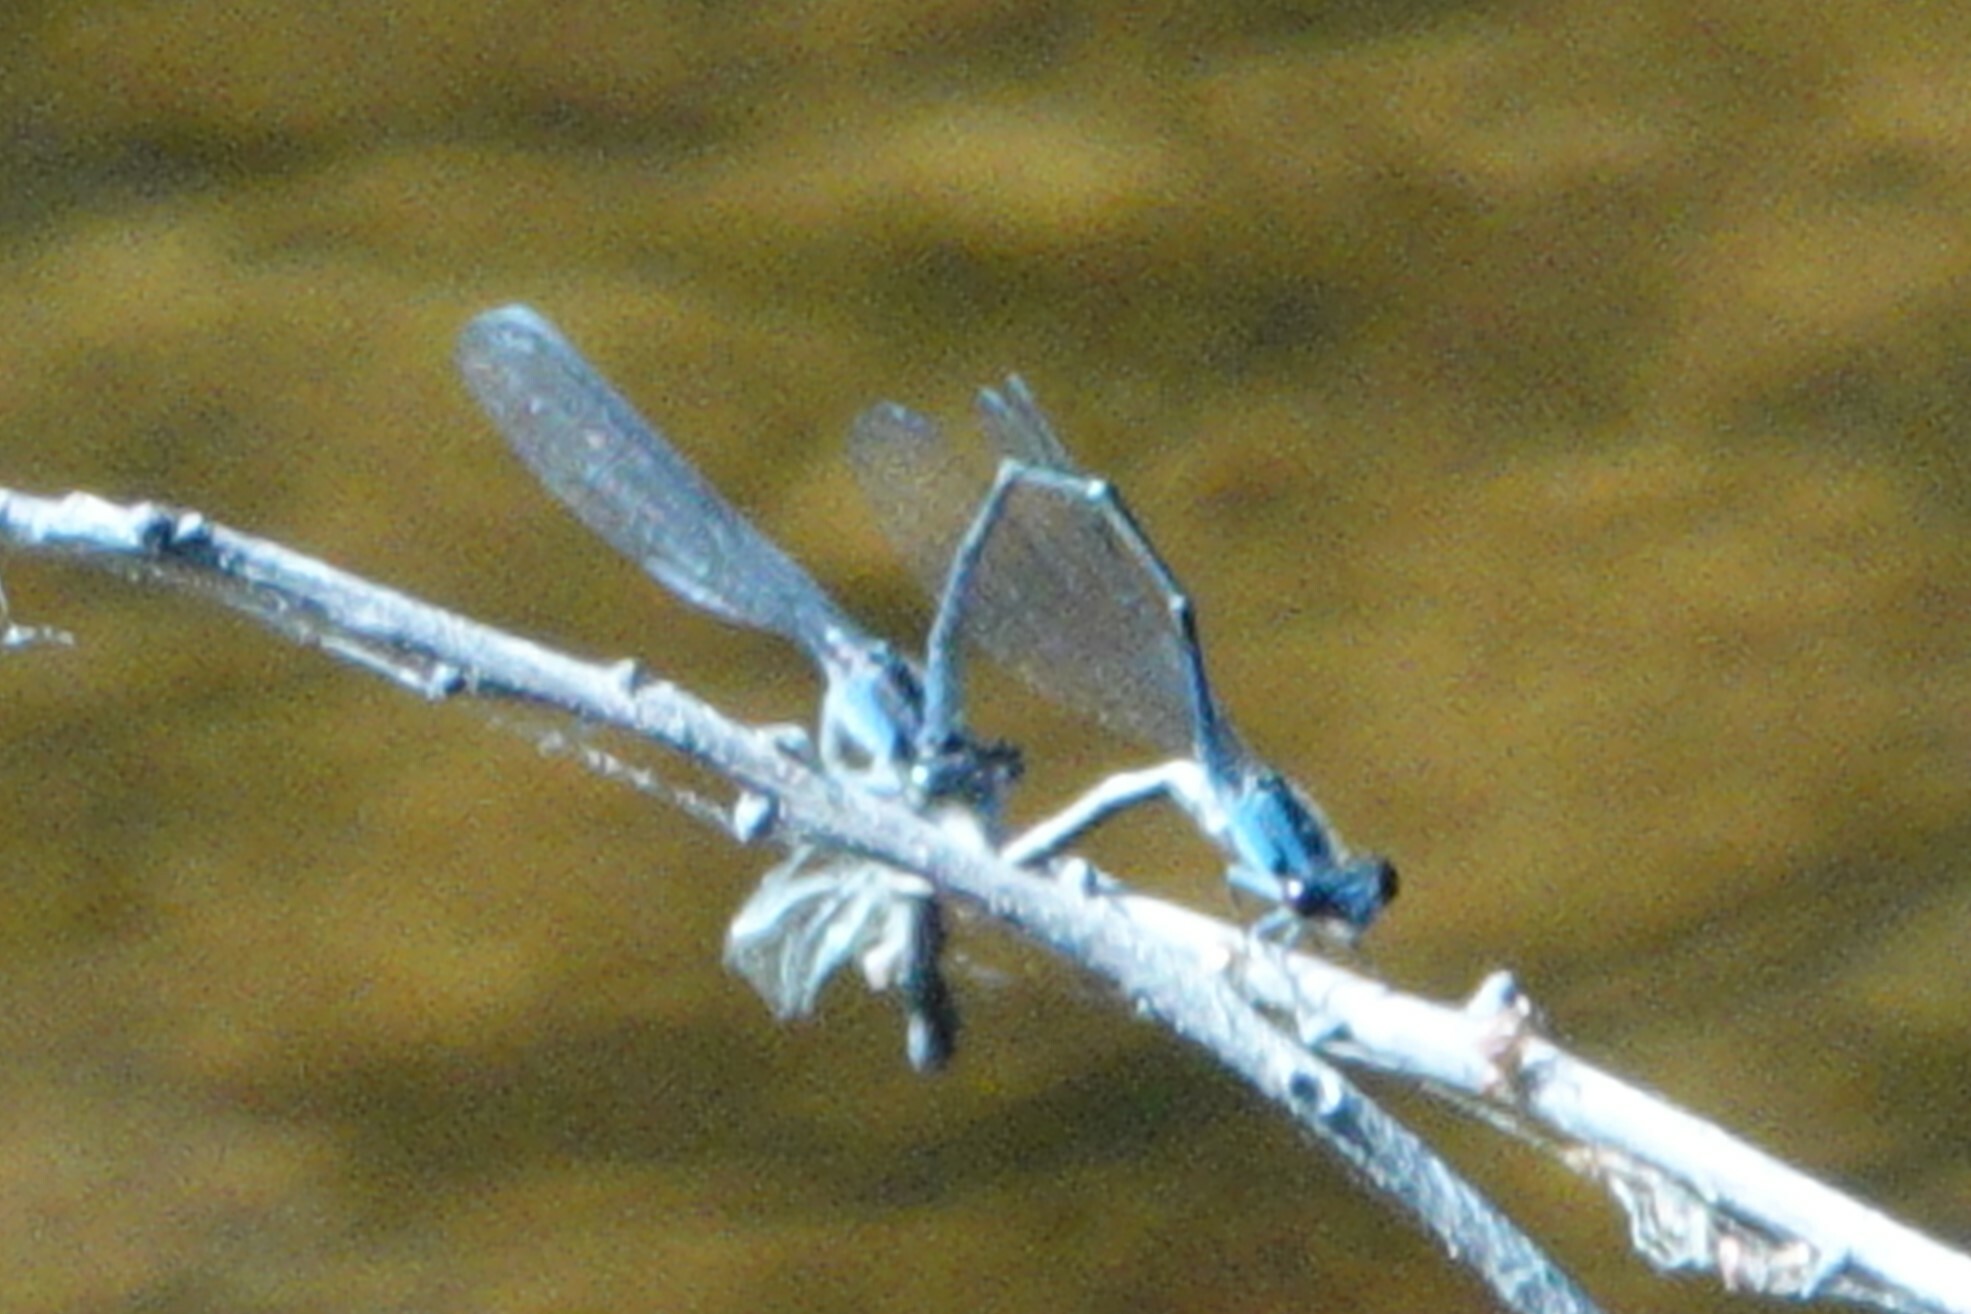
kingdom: Animalia
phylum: Arthropoda
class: Insecta
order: Odonata
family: Coenagrionidae
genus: Enallagma
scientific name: Enallagma cardenium
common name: Purple bluet
